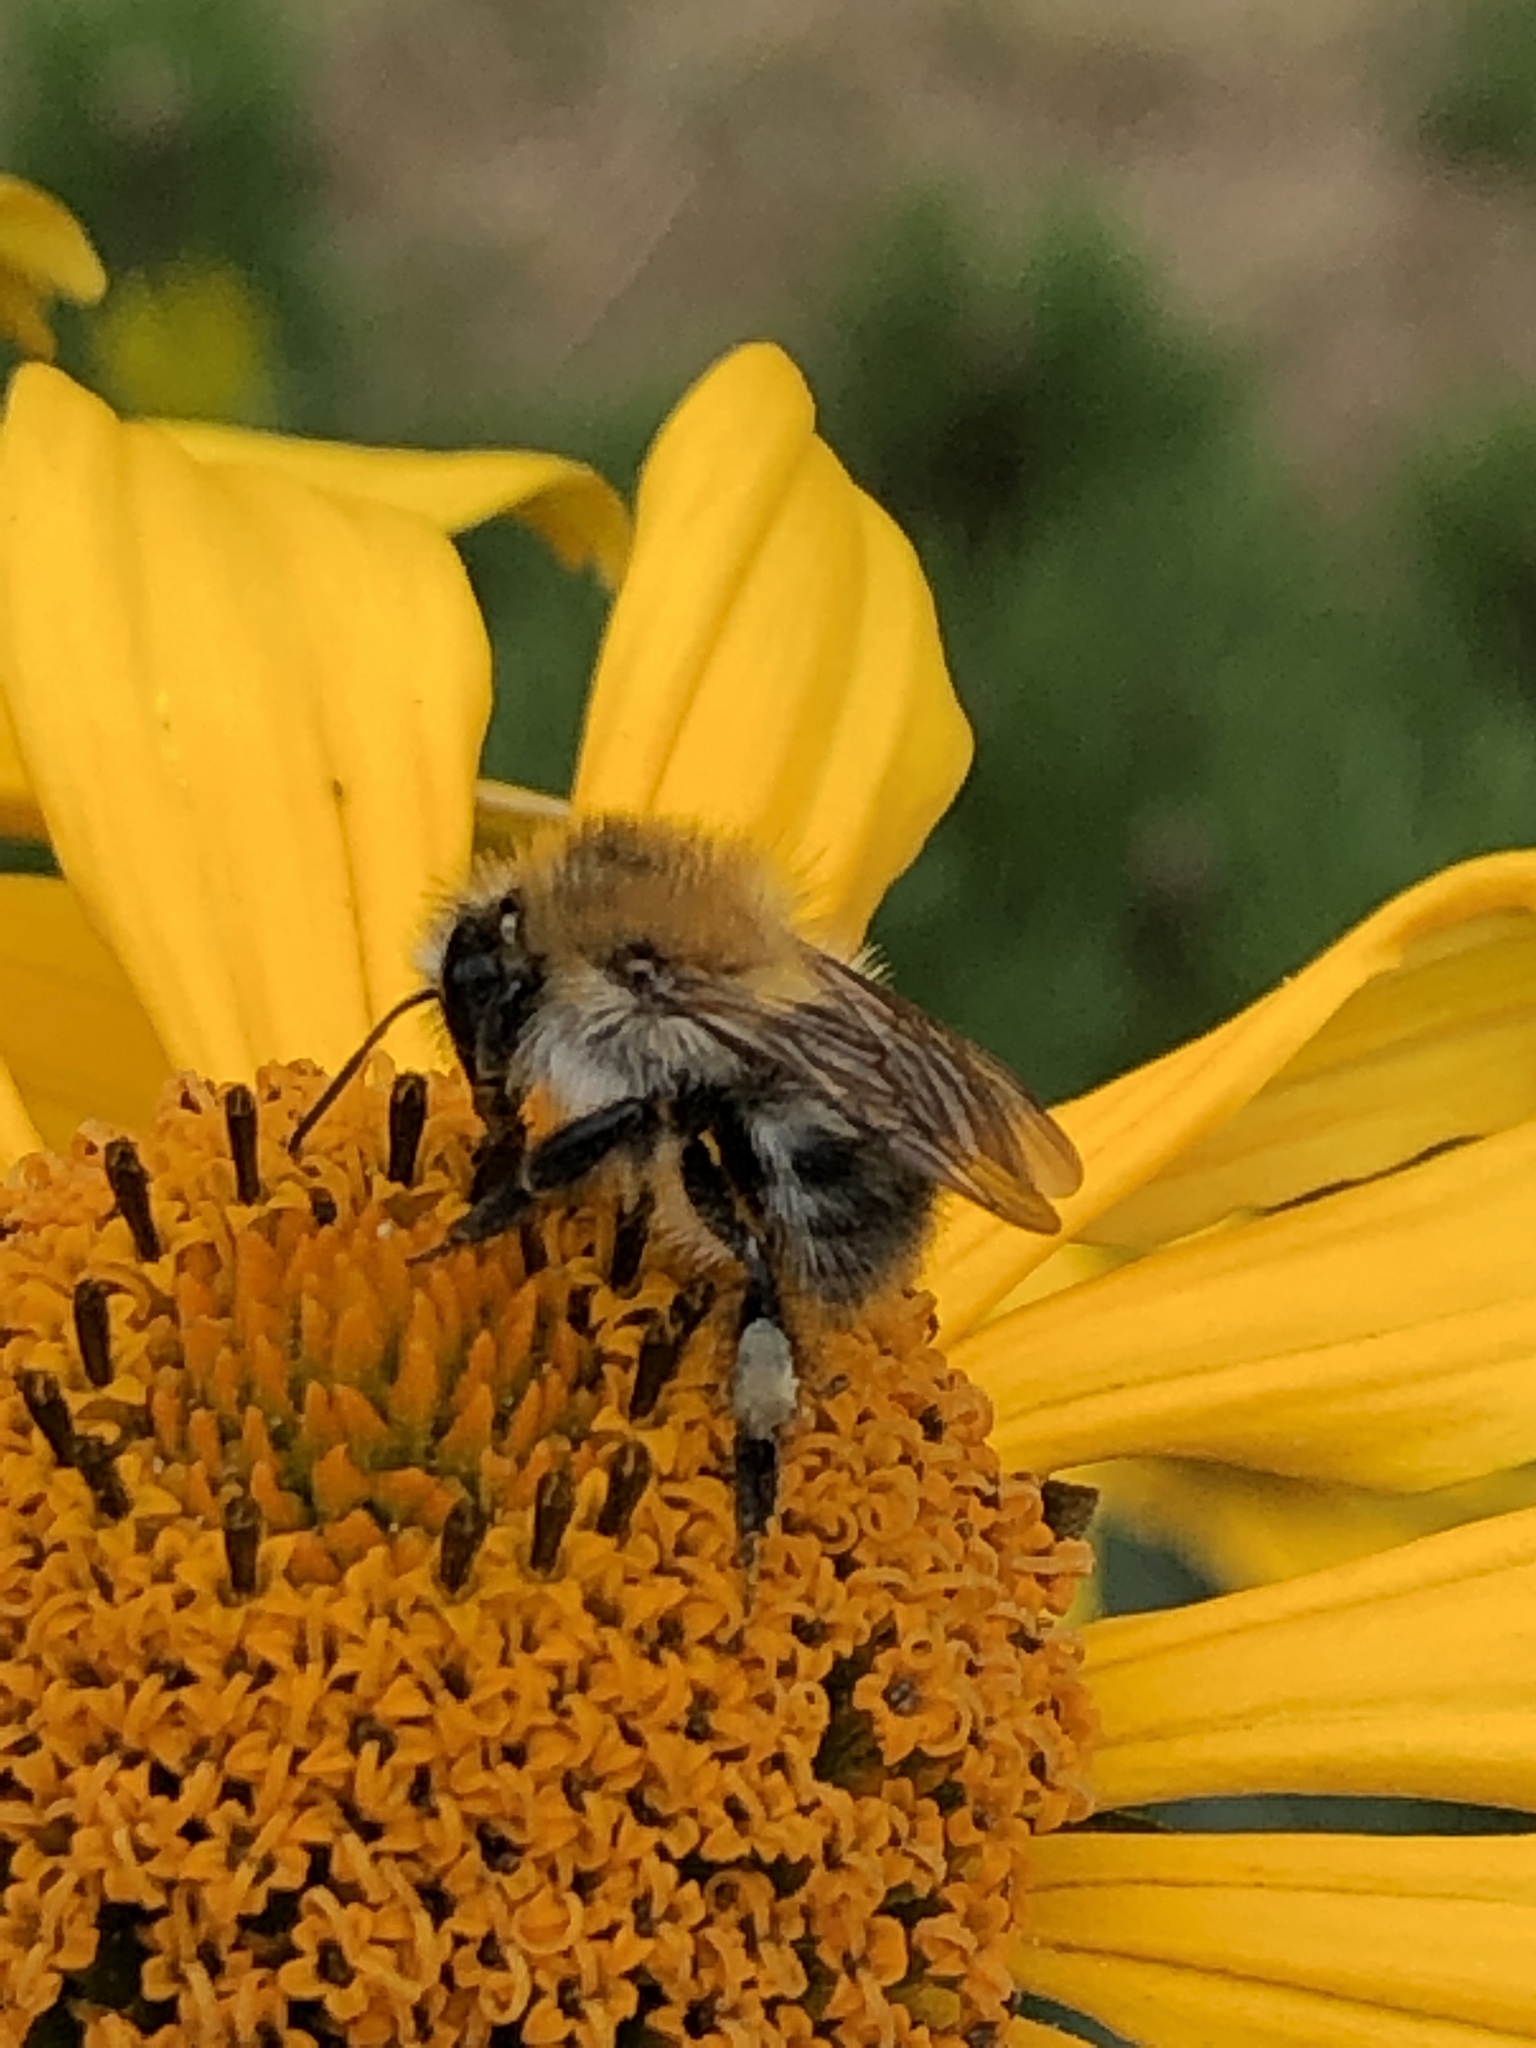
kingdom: Animalia
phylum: Arthropoda
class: Insecta
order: Hymenoptera
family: Apidae
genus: Bombus
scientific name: Bombus pascuorum
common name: Common carder bee
